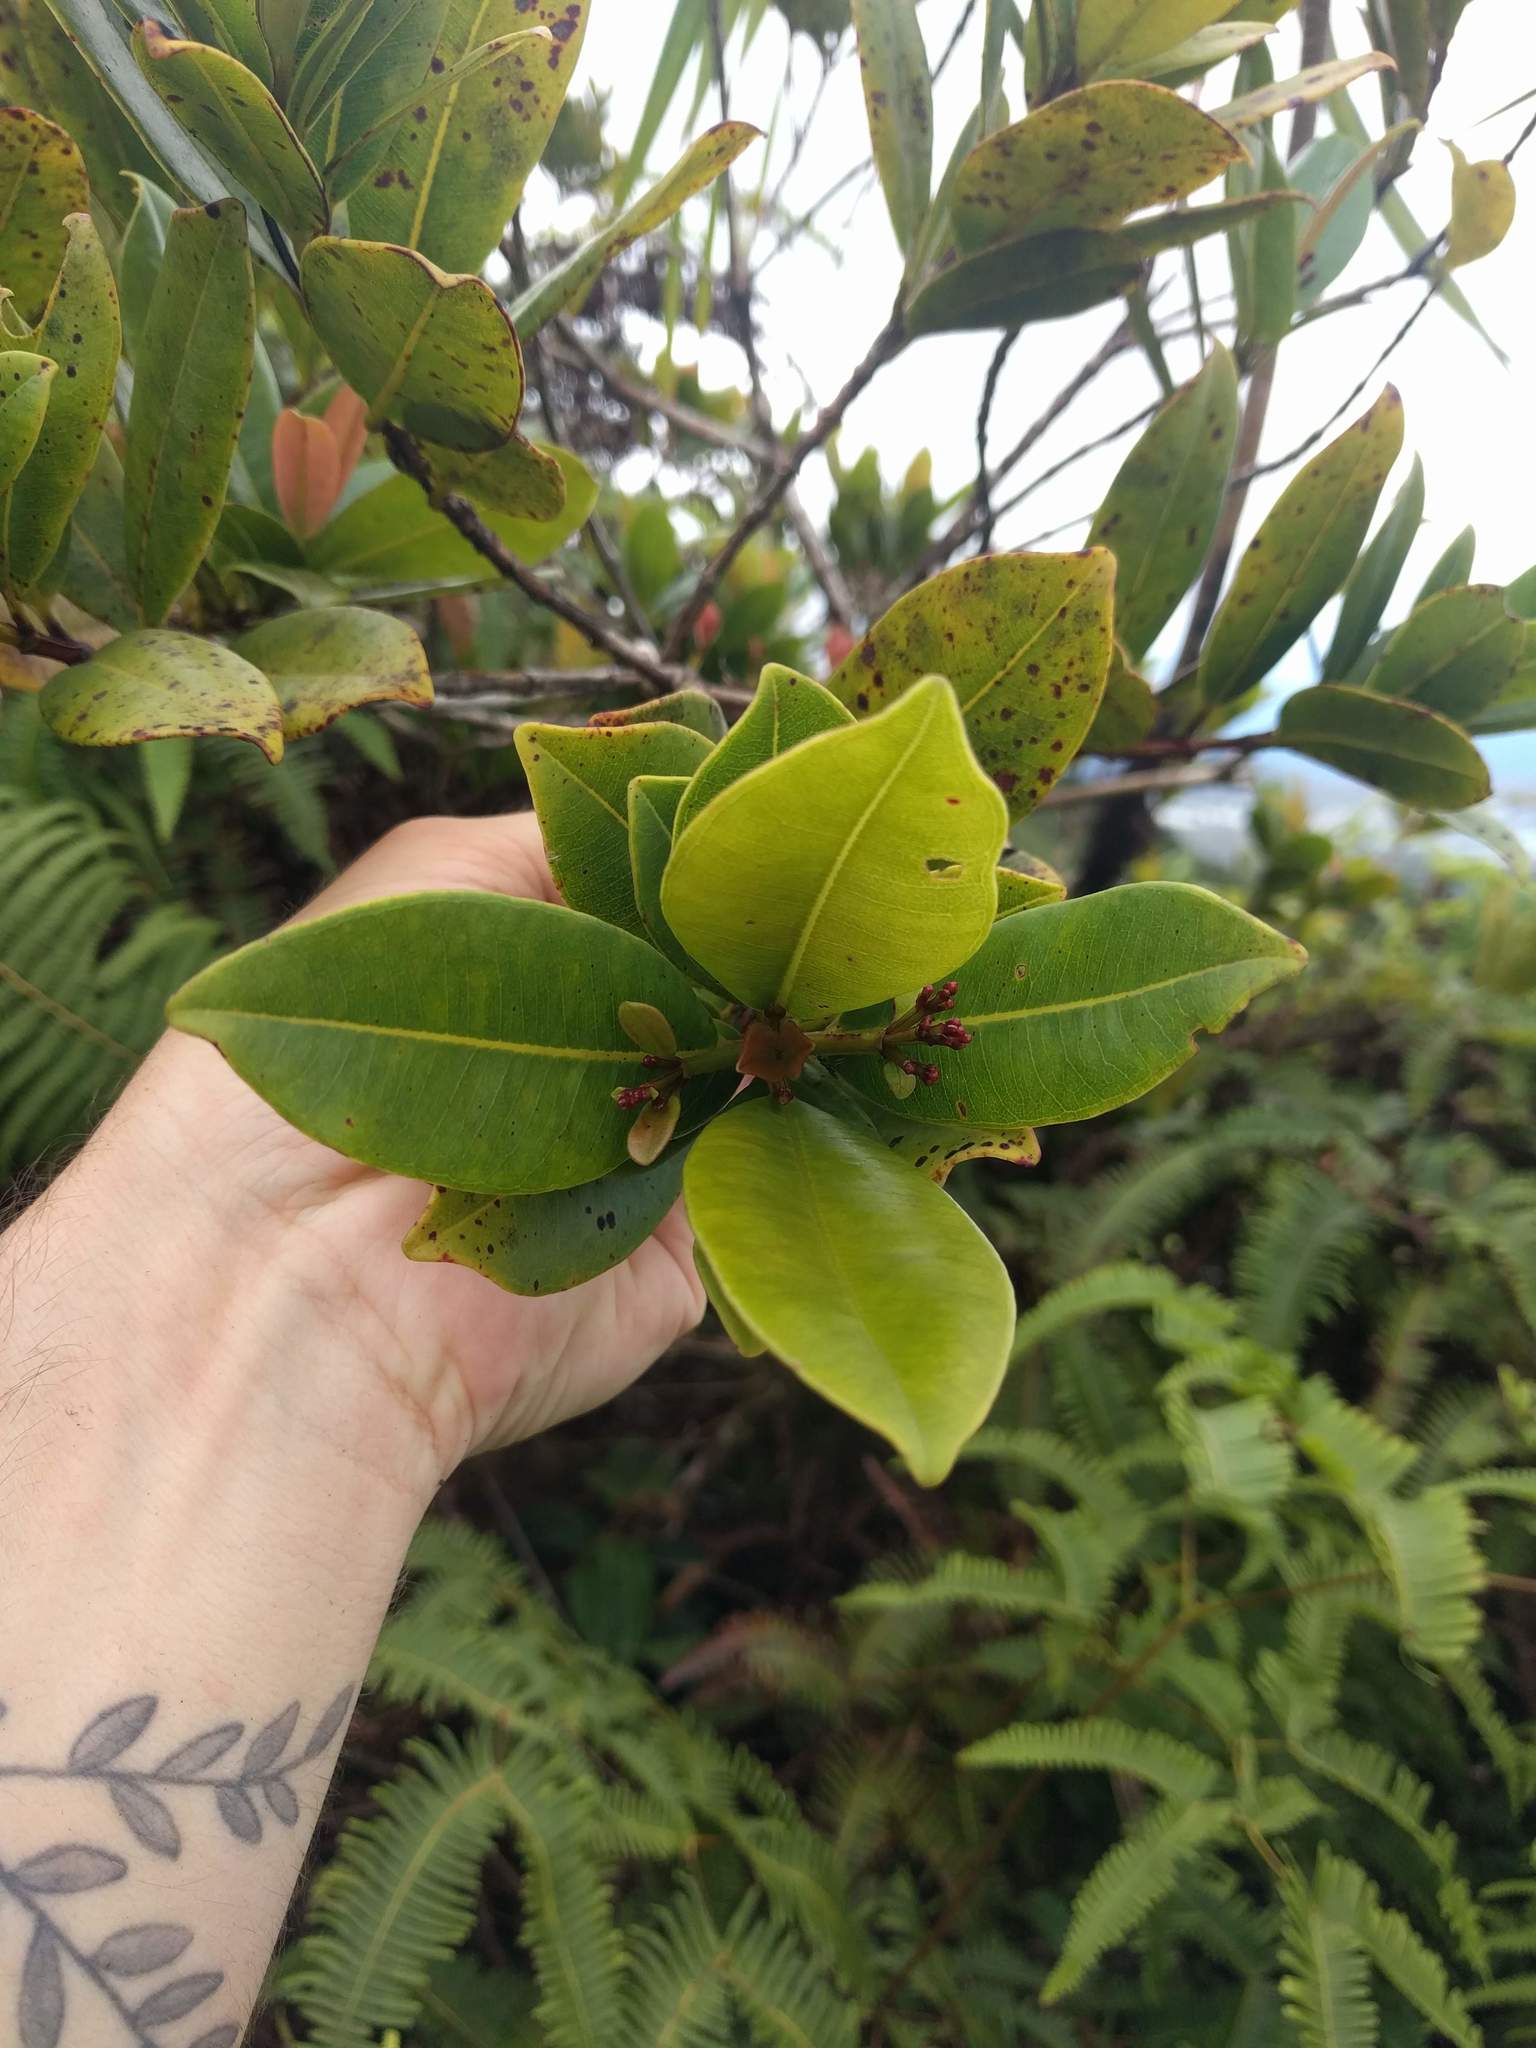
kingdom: Plantae
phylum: Tracheophyta
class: Magnoliopsida
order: Myrtales
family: Myrtaceae
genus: Syzygium
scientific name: Syzygium sandwicense
